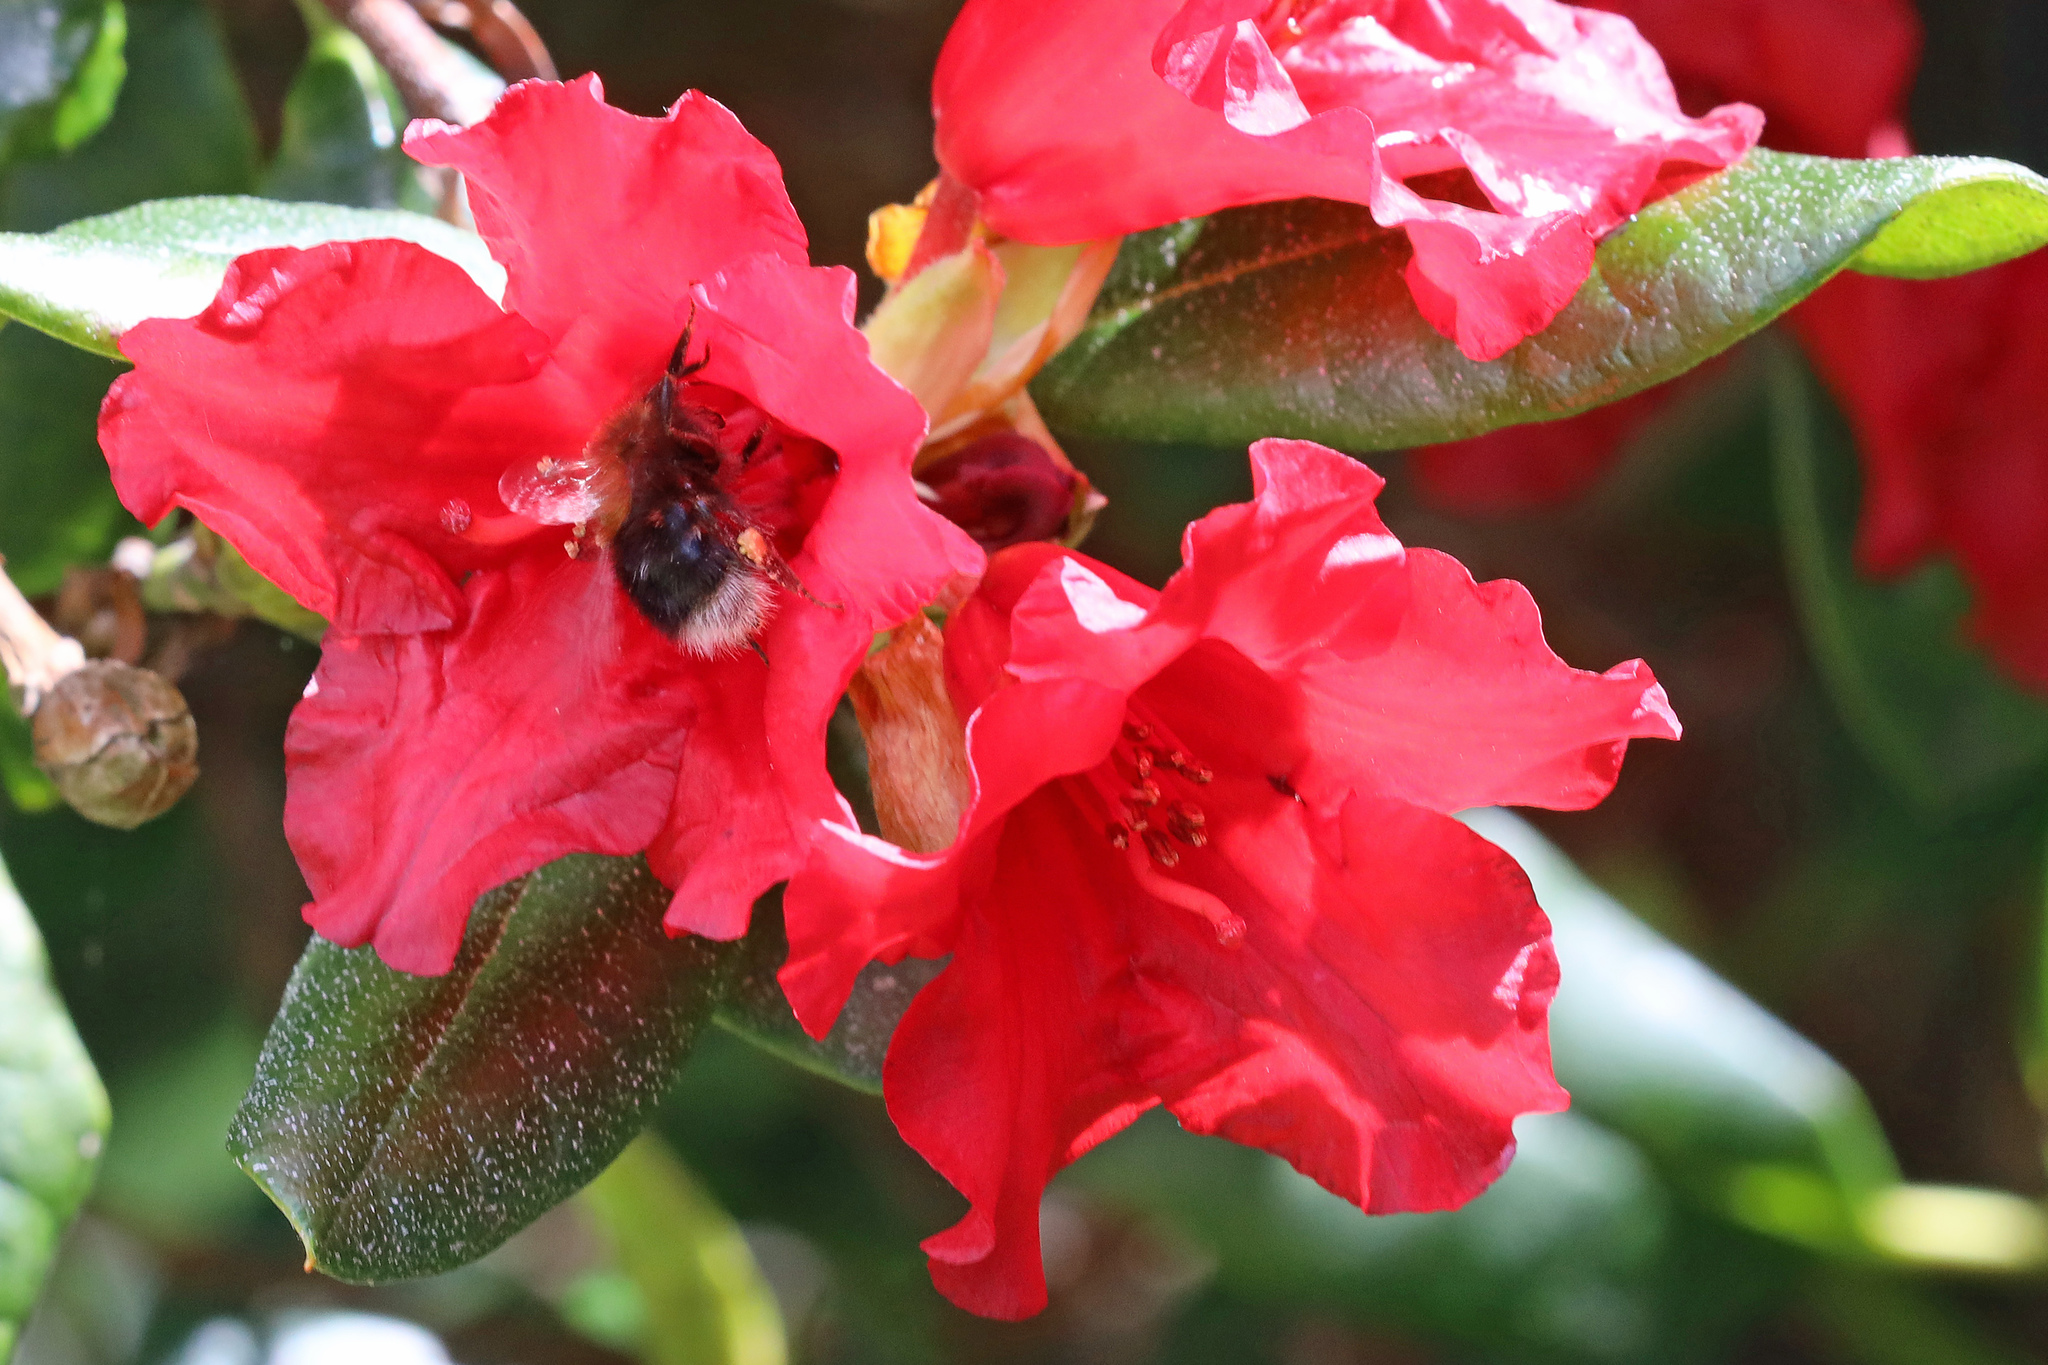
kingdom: Animalia
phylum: Arthropoda
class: Insecta
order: Hymenoptera
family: Apidae
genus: Bombus
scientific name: Bombus hypnorum
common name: New garden bumblebee
